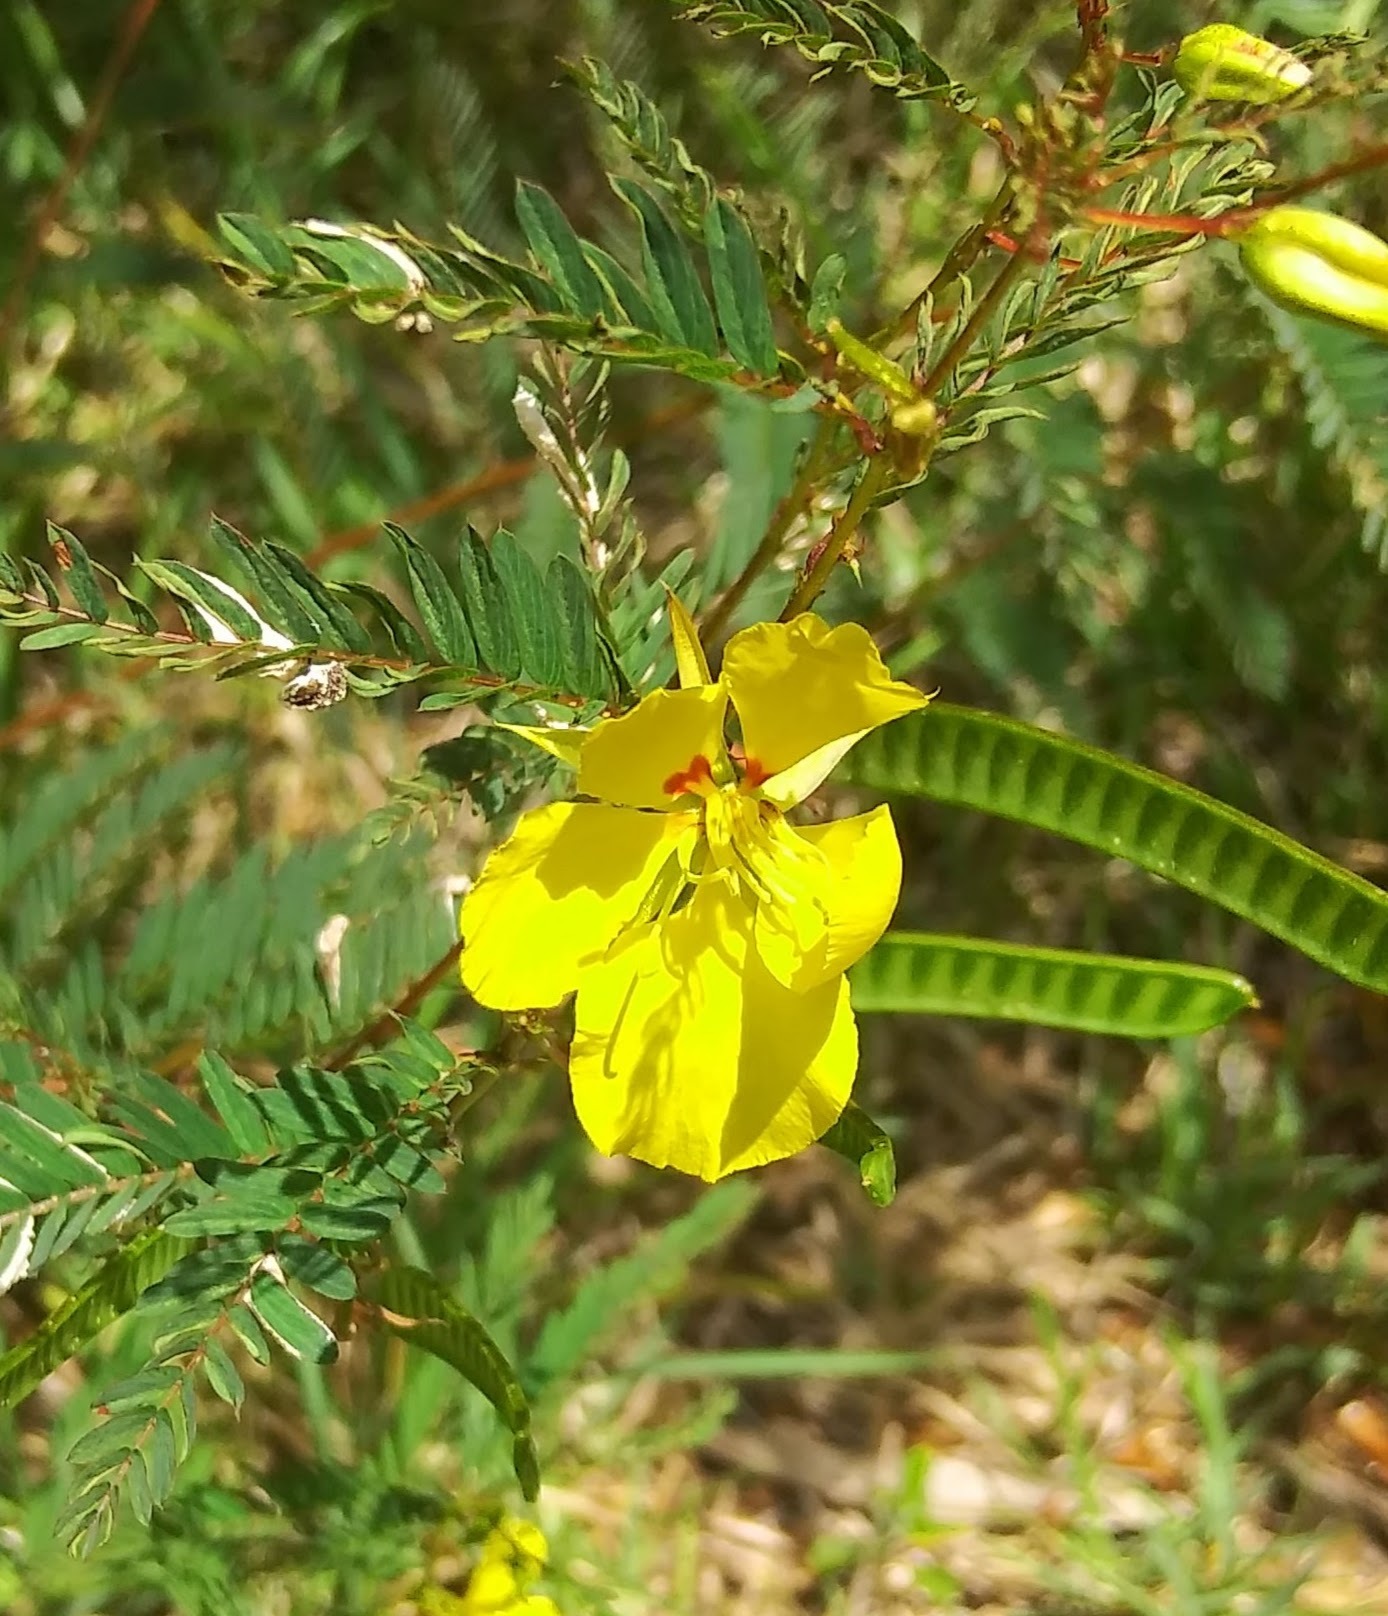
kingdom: Plantae
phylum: Tracheophyta
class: Magnoliopsida
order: Fabales
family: Fabaceae
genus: Chamaecrista
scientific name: Chamaecrista fasciculata
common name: Golden cassia
